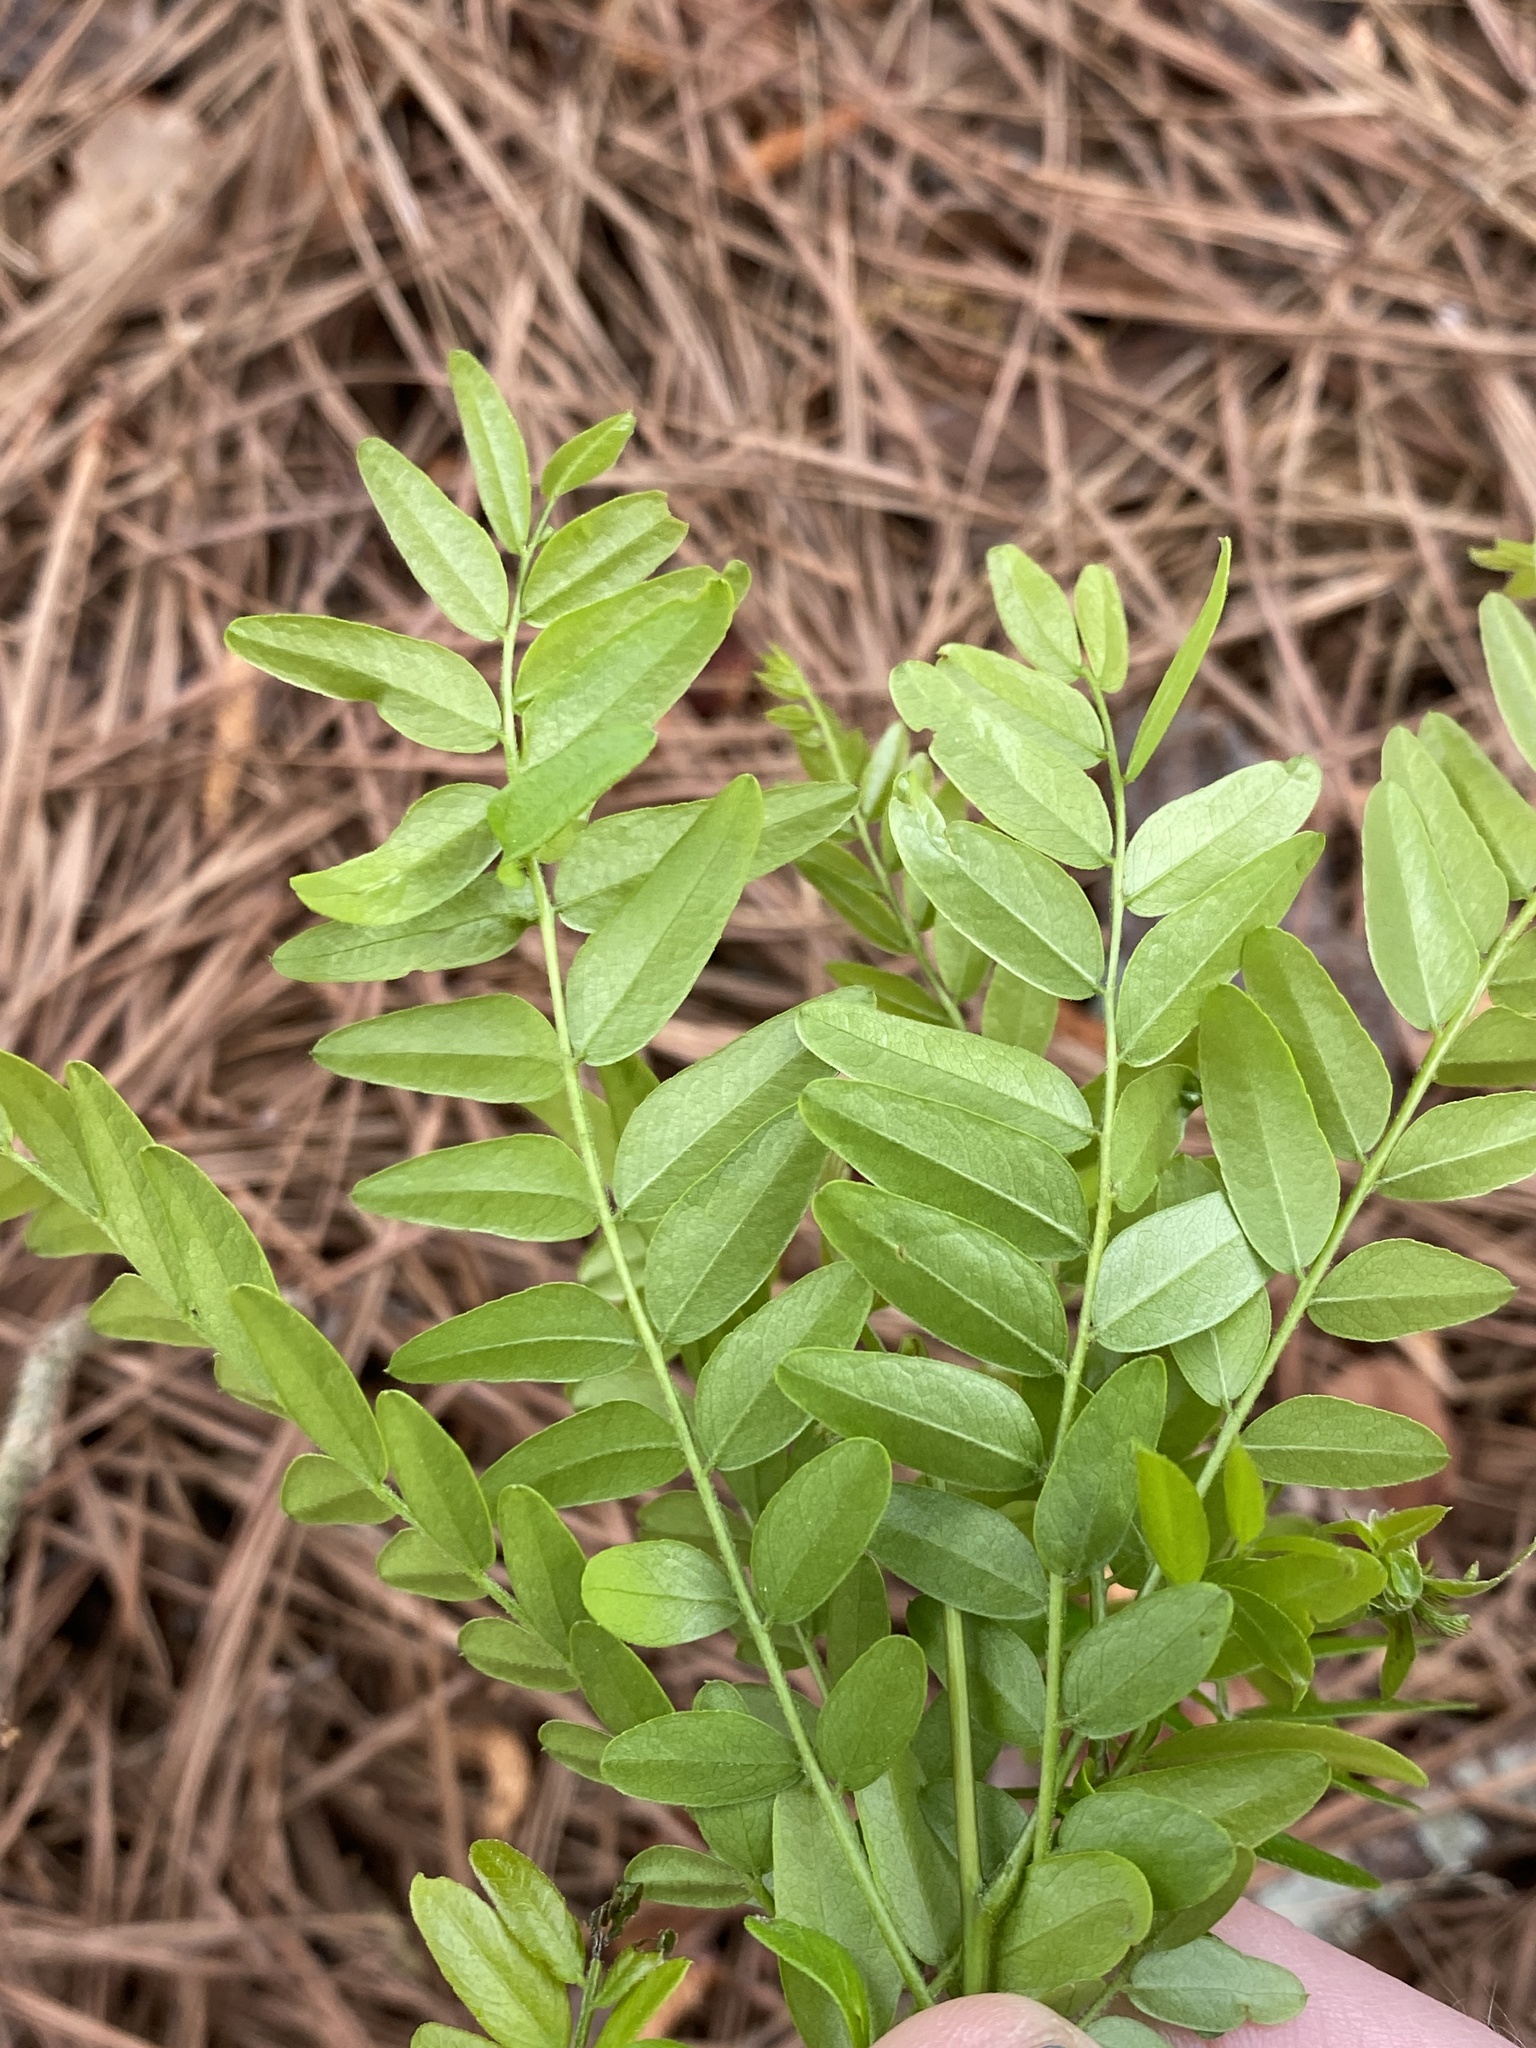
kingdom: Plantae
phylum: Tracheophyta
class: Magnoliopsida
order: Fabales
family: Fabaceae
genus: Gleditsia
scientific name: Gleditsia triacanthos
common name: Common honeylocust
